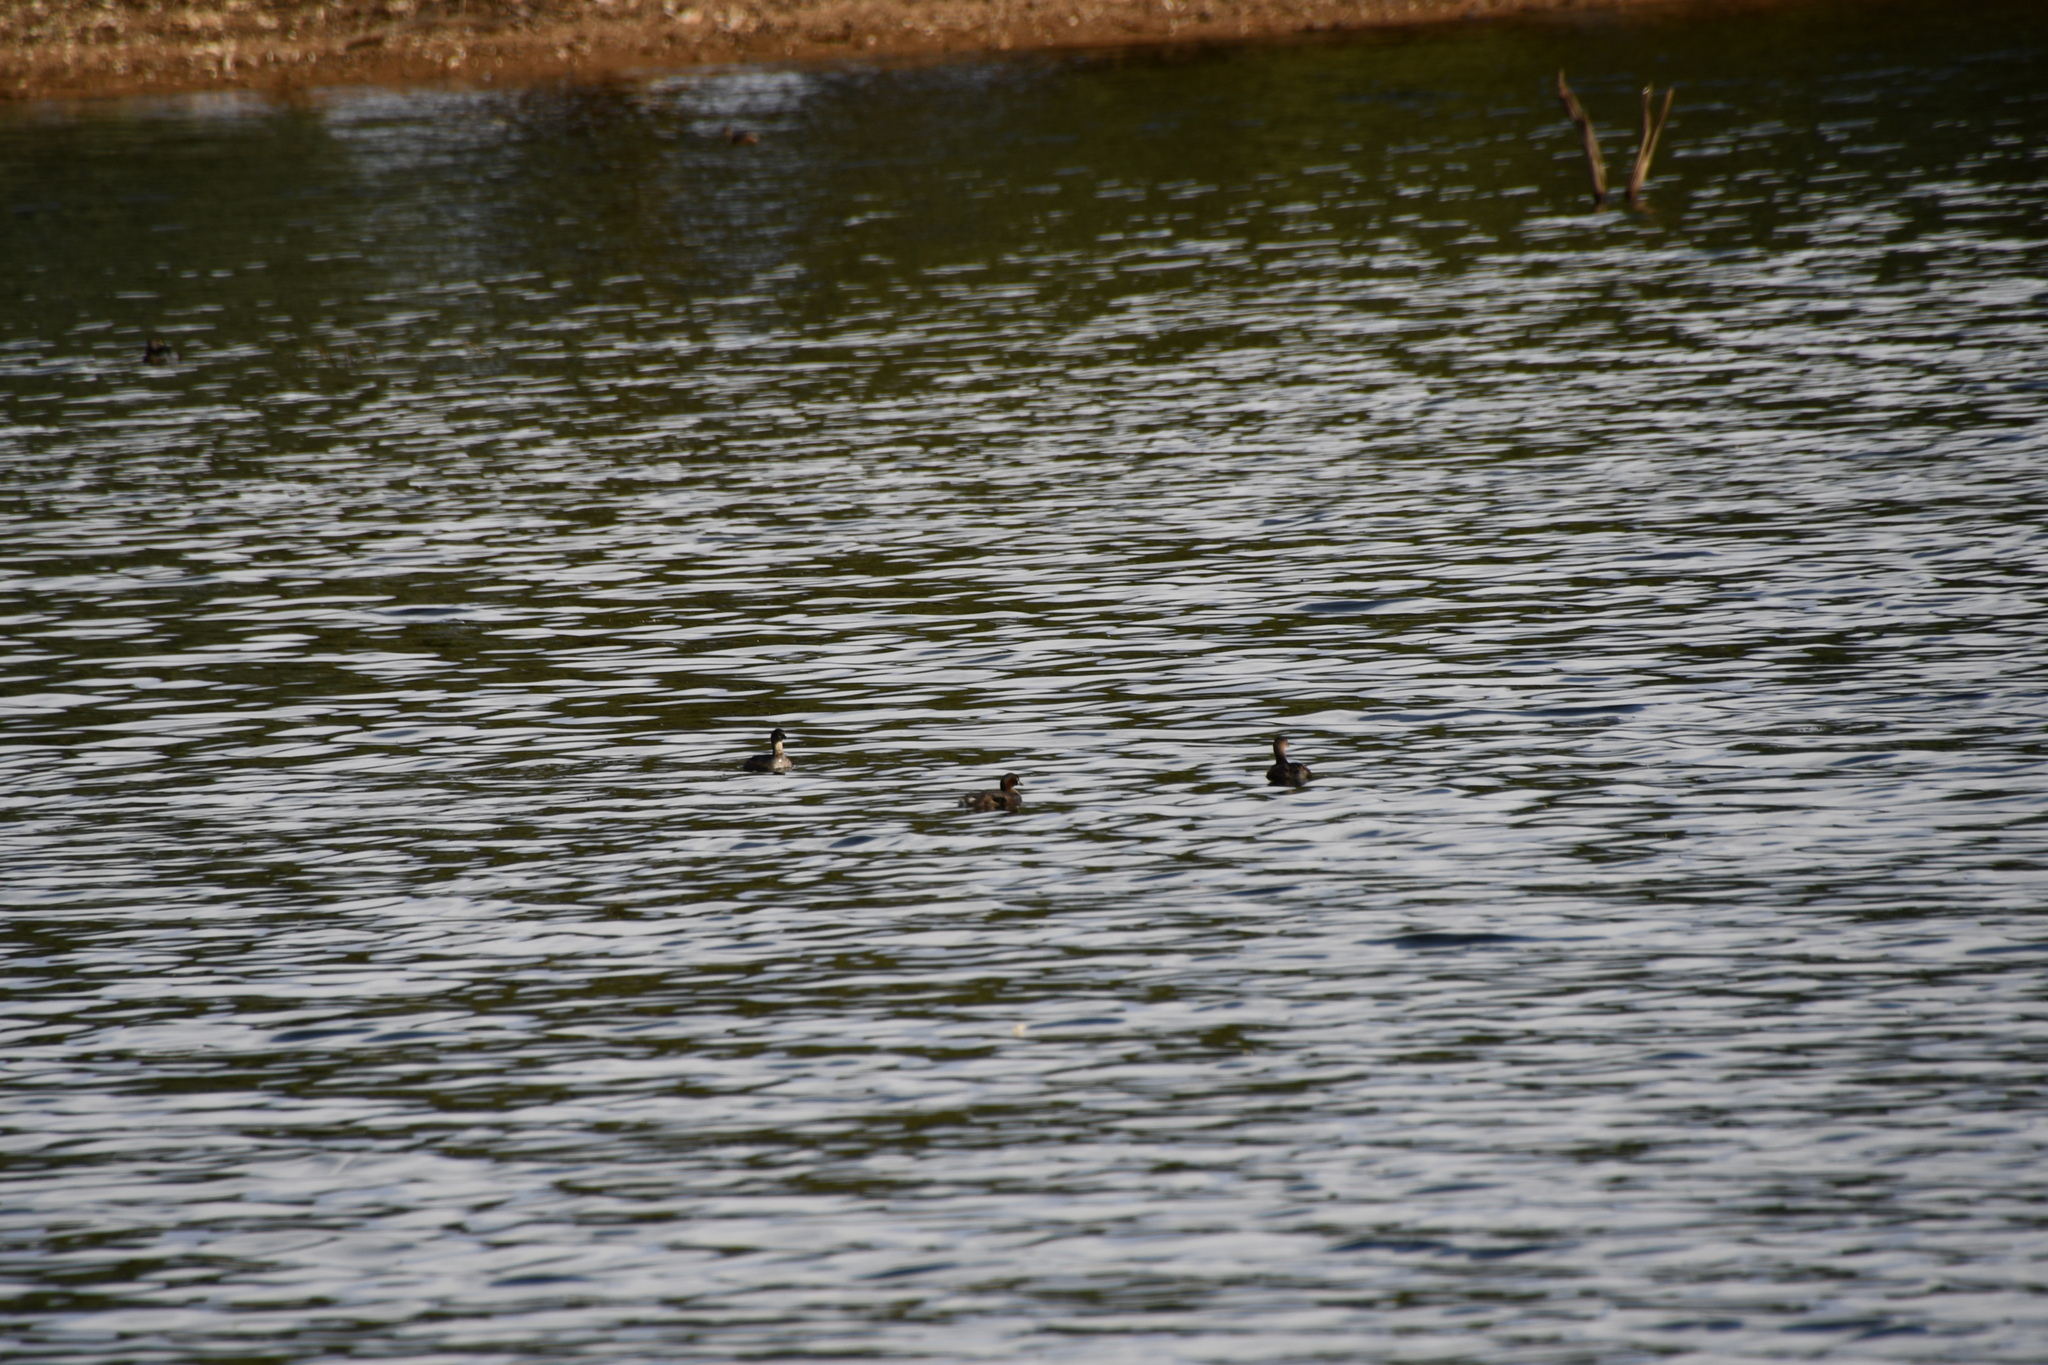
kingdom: Animalia
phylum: Chordata
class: Aves
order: Podicipediformes
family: Podicipedidae
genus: Tachybaptus
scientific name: Tachybaptus novaehollandiae
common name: Australasian grebe
